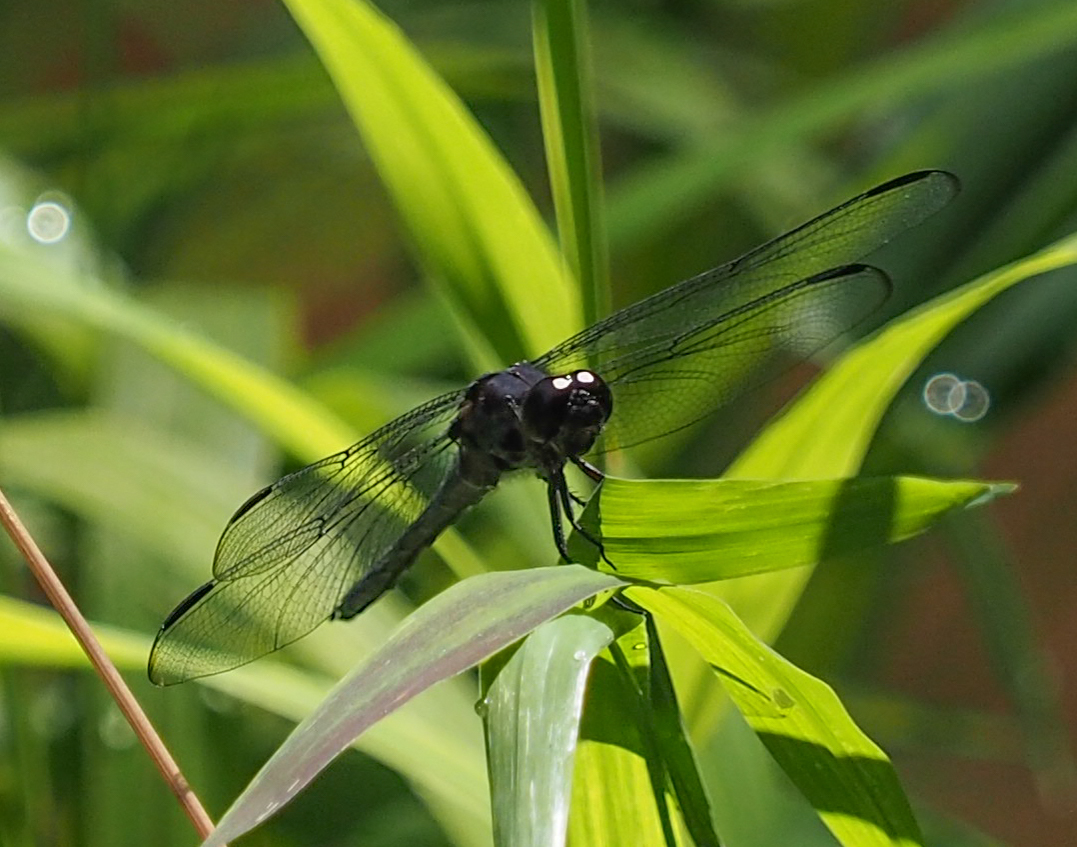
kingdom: Animalia
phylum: Arthropoda
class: Insecta
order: Odonata
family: Libellulidae
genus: Libellula
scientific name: Libellula incesta
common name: Slaty skimmer
